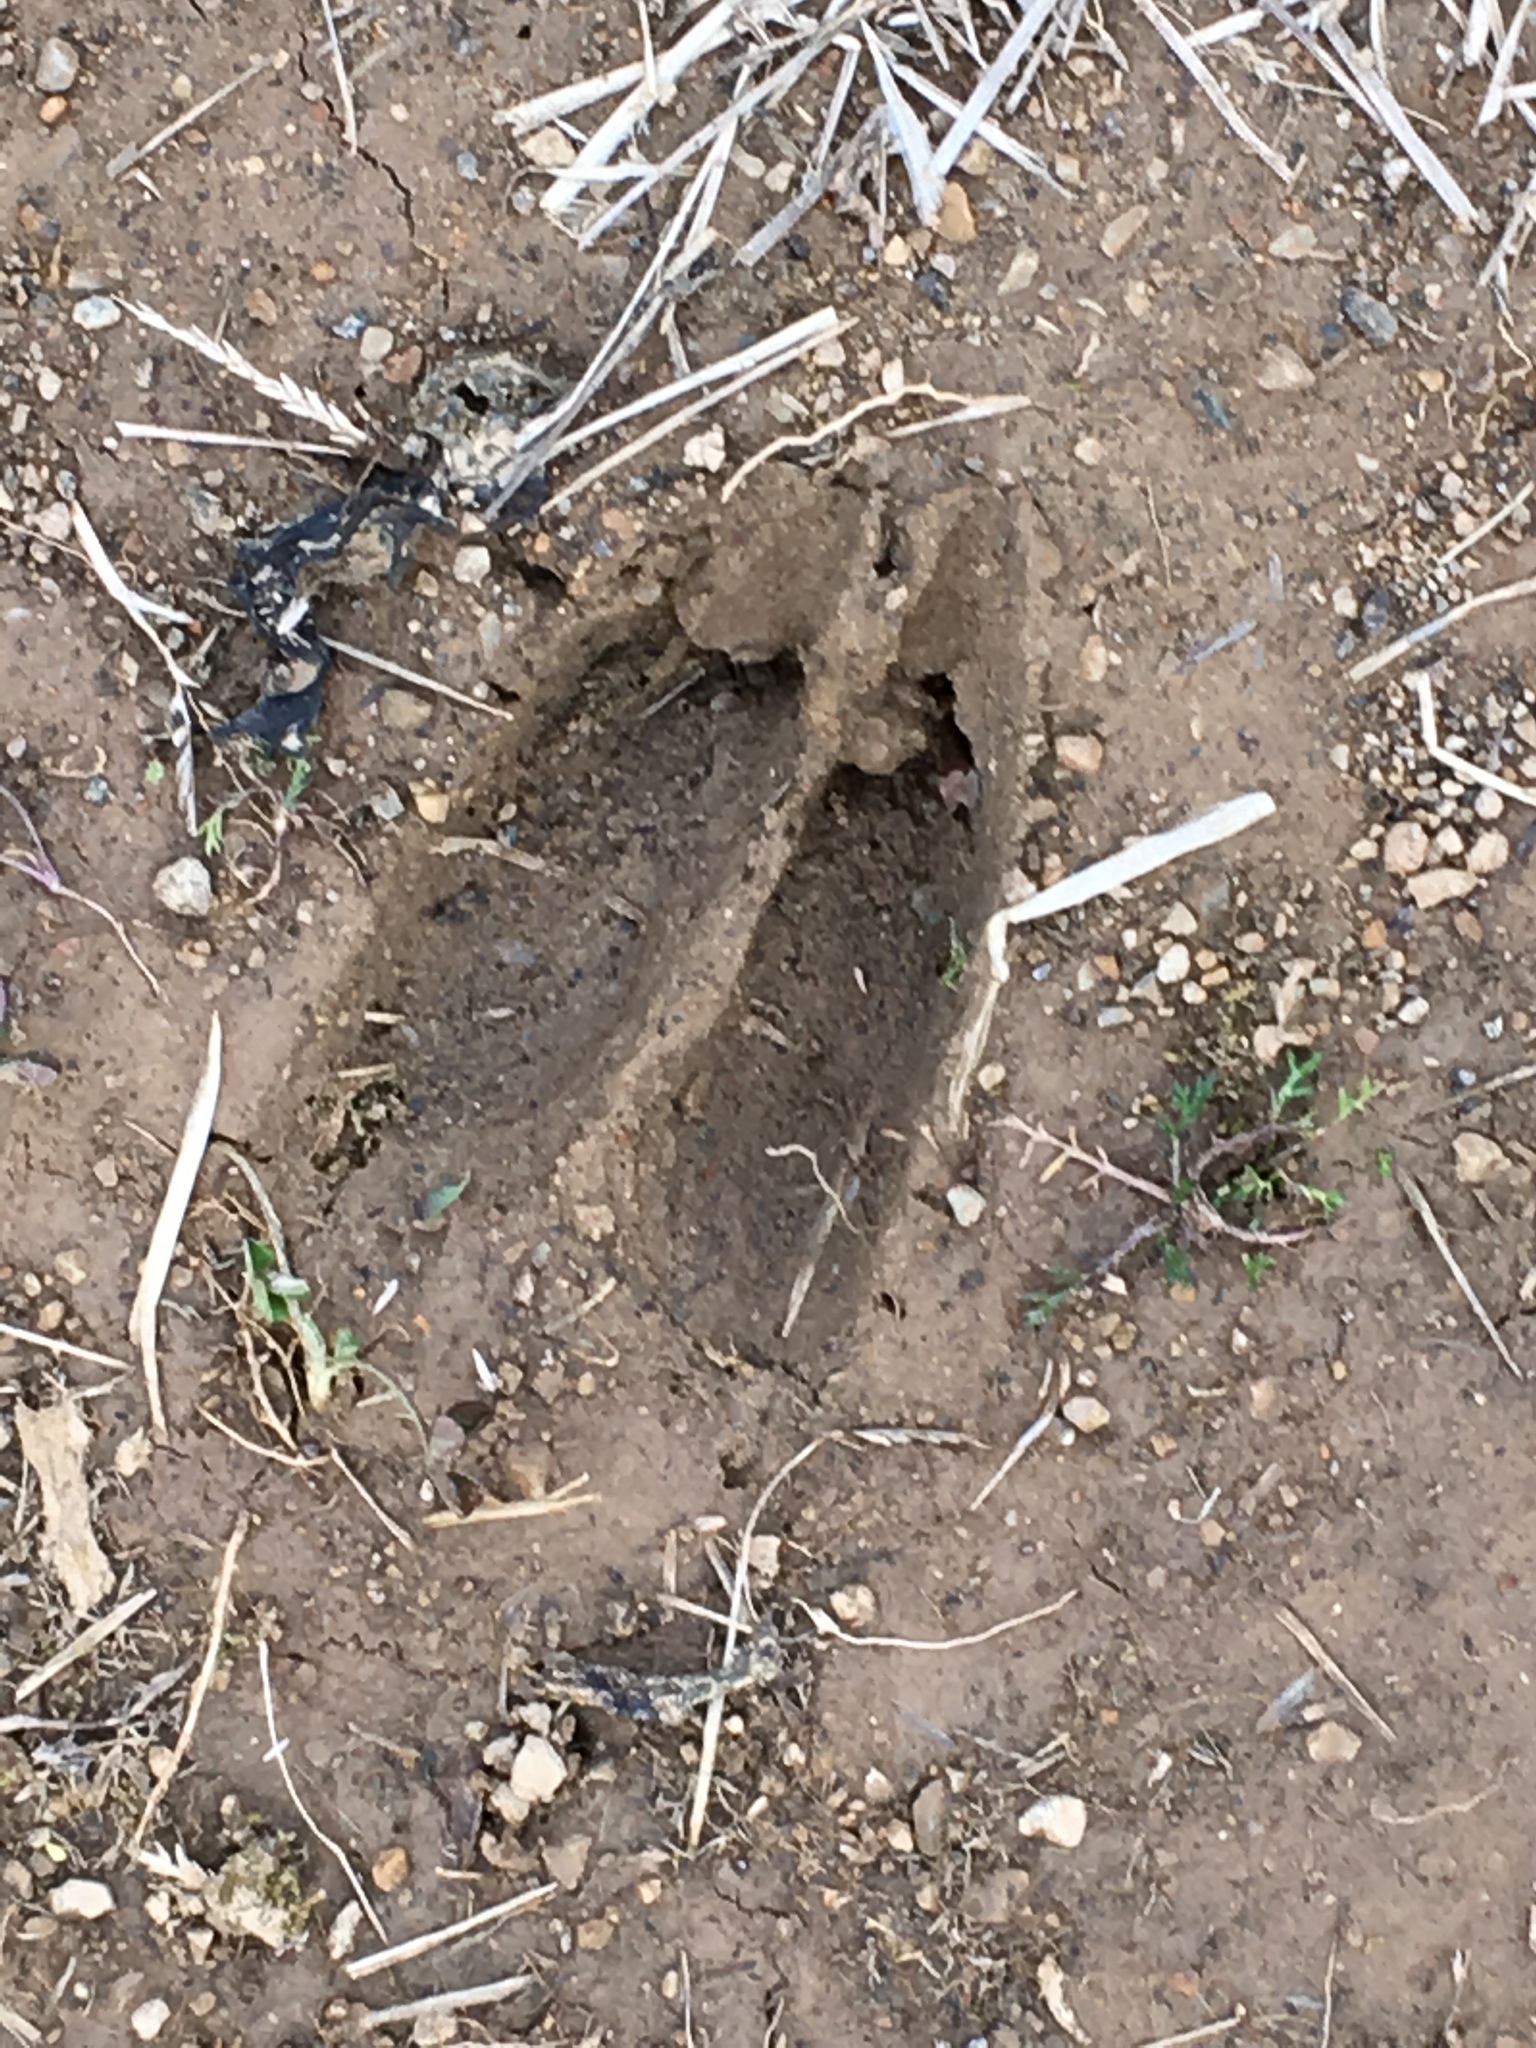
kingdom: Animalia
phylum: Chordata
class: Mammalia
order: Artiodactyla
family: Cervidae
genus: Odocoileus
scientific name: Odocoileus virginianus
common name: White-tailed deer
